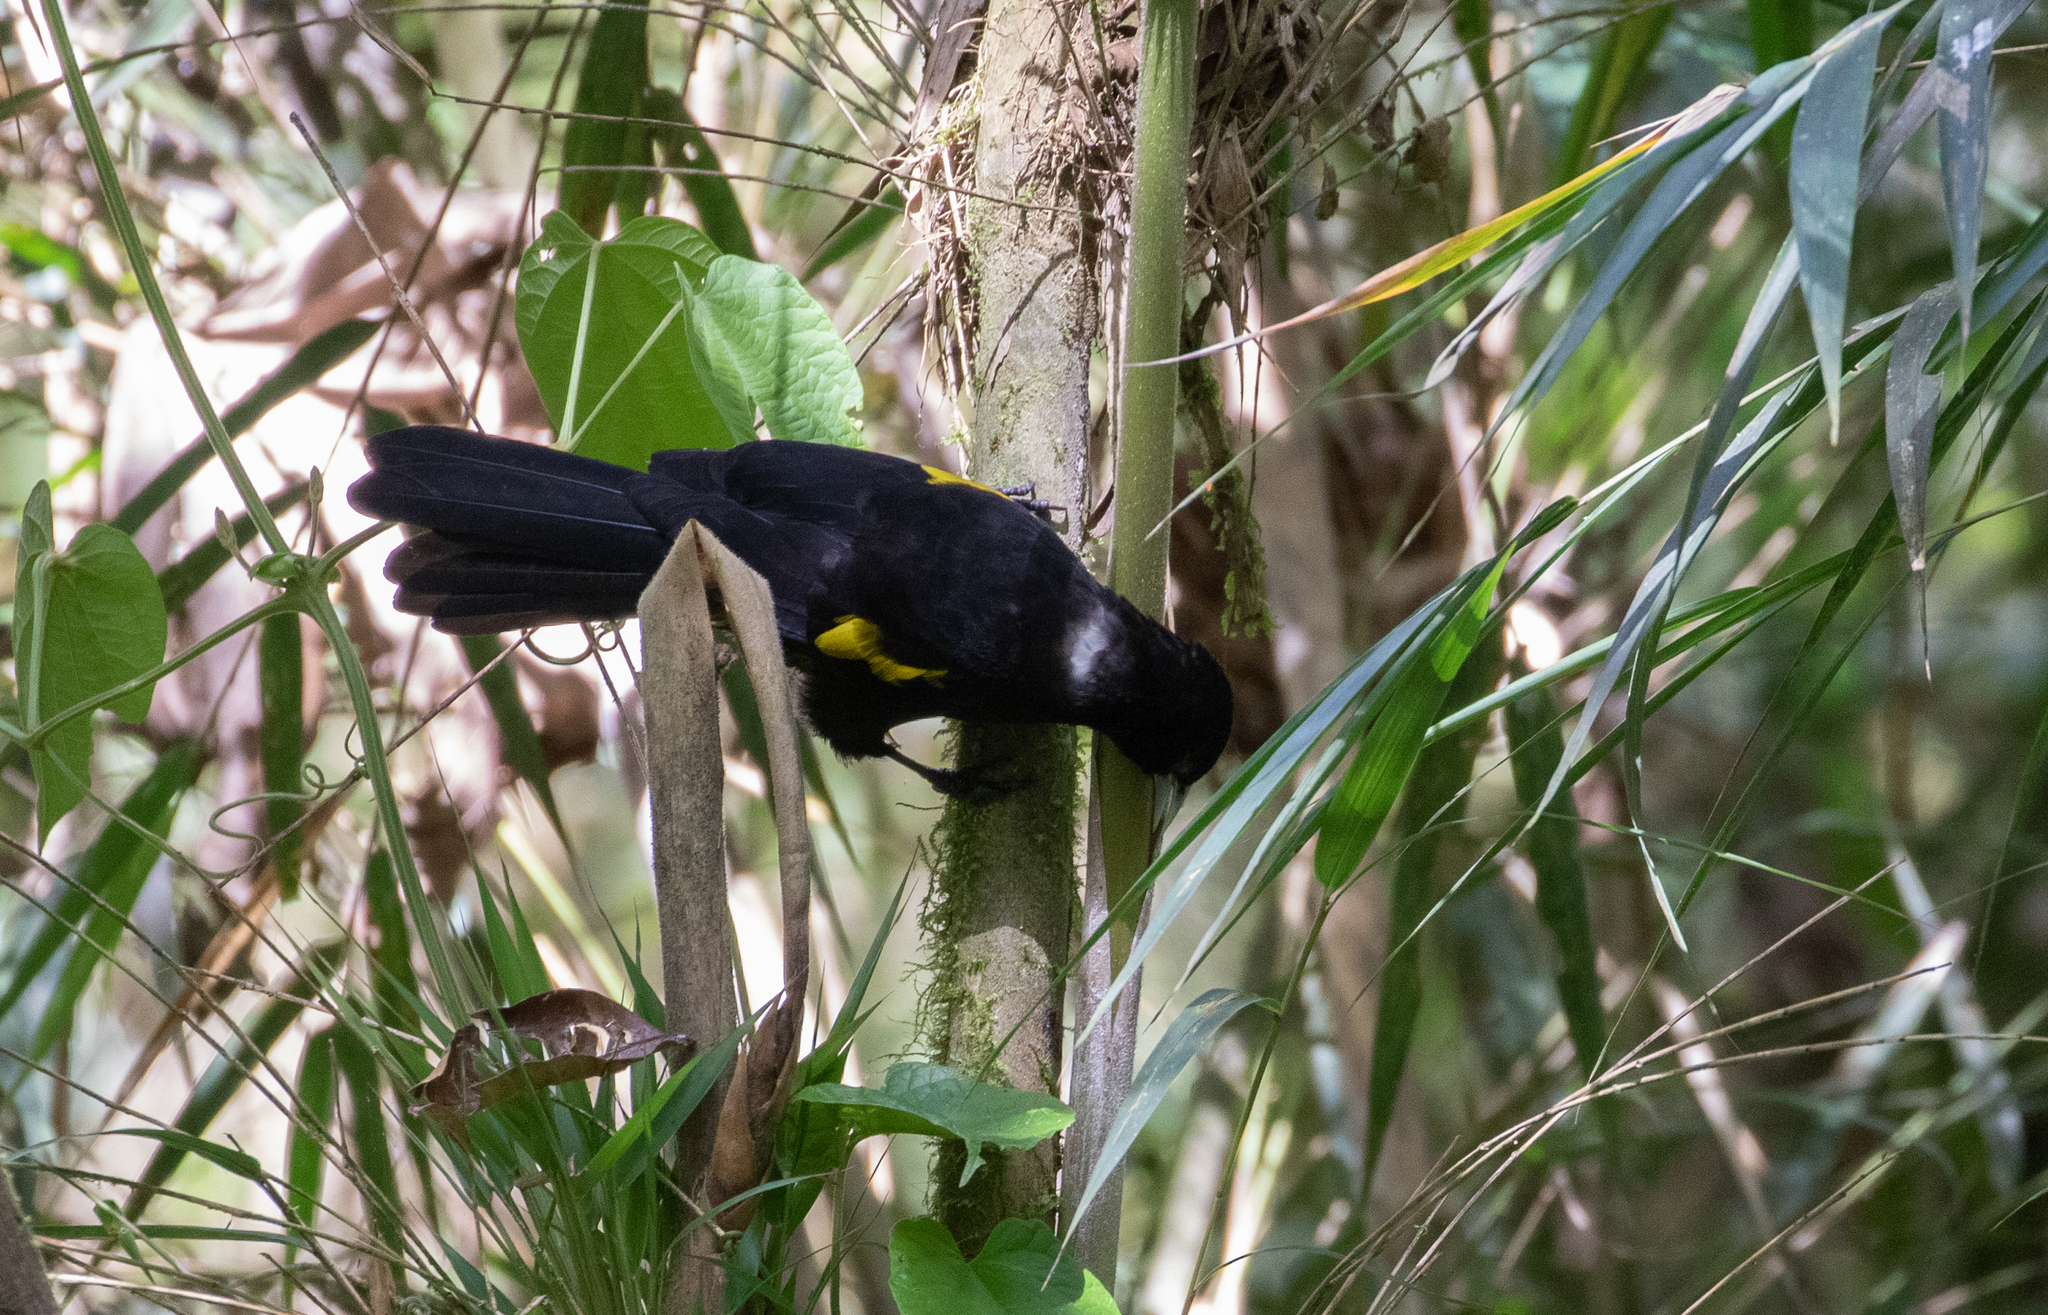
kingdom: Animalia
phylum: Chordata
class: Aves
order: Passeriformes
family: Icteridae
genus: Cacicus
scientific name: Cacicus chrysonotus
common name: Southern mountain cacique
